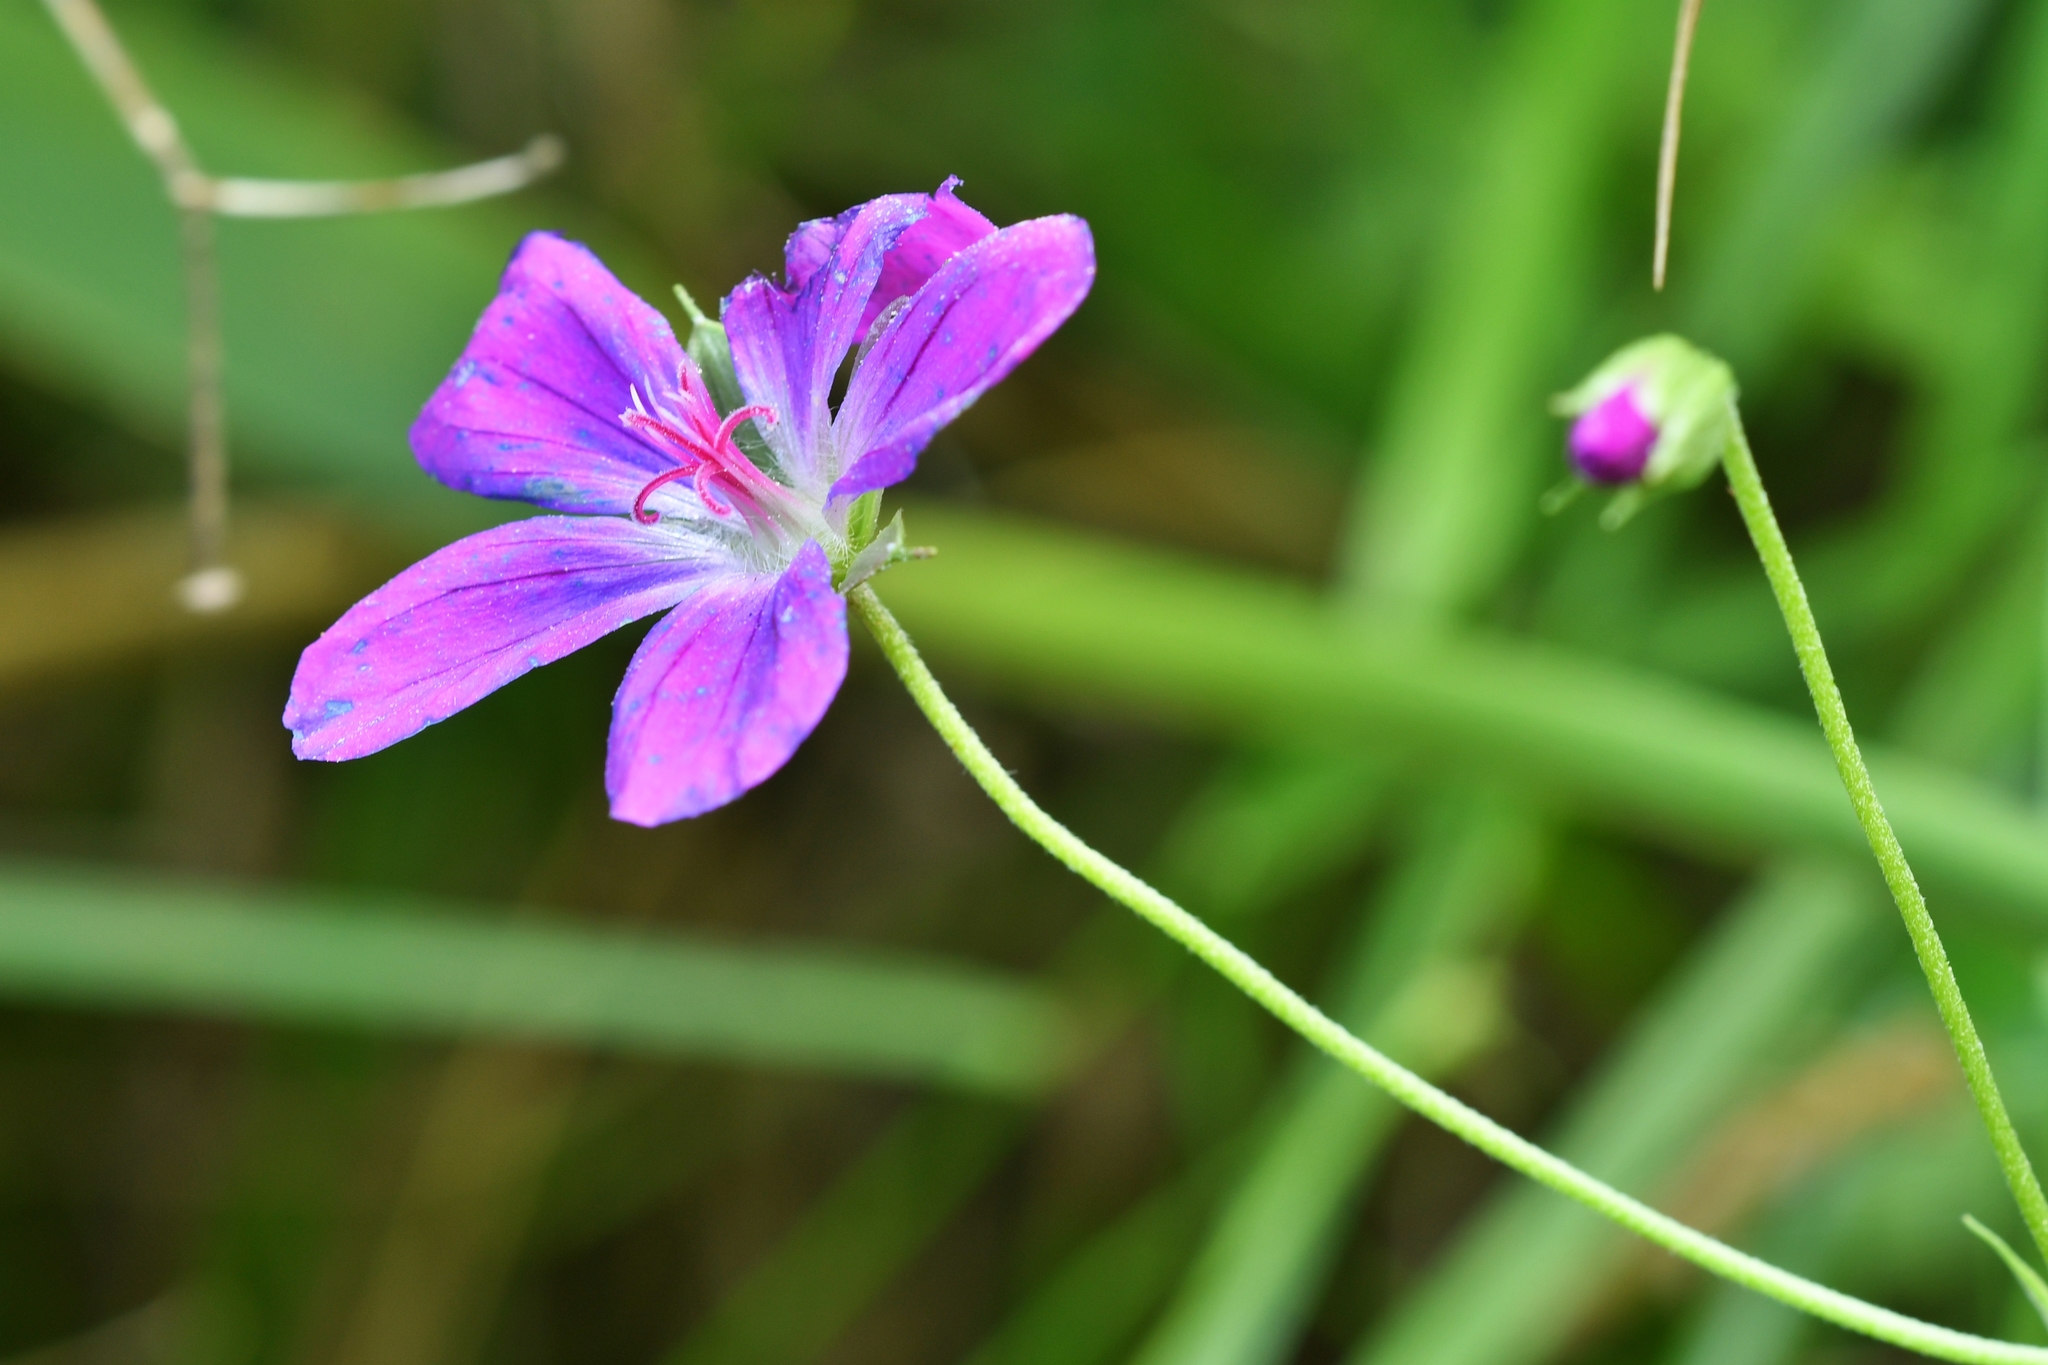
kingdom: Plantae
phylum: Tracheophyta
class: Magnoliopsida
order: Geraniales
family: Geraniaceae
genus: Geranium
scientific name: Geranium palustre
